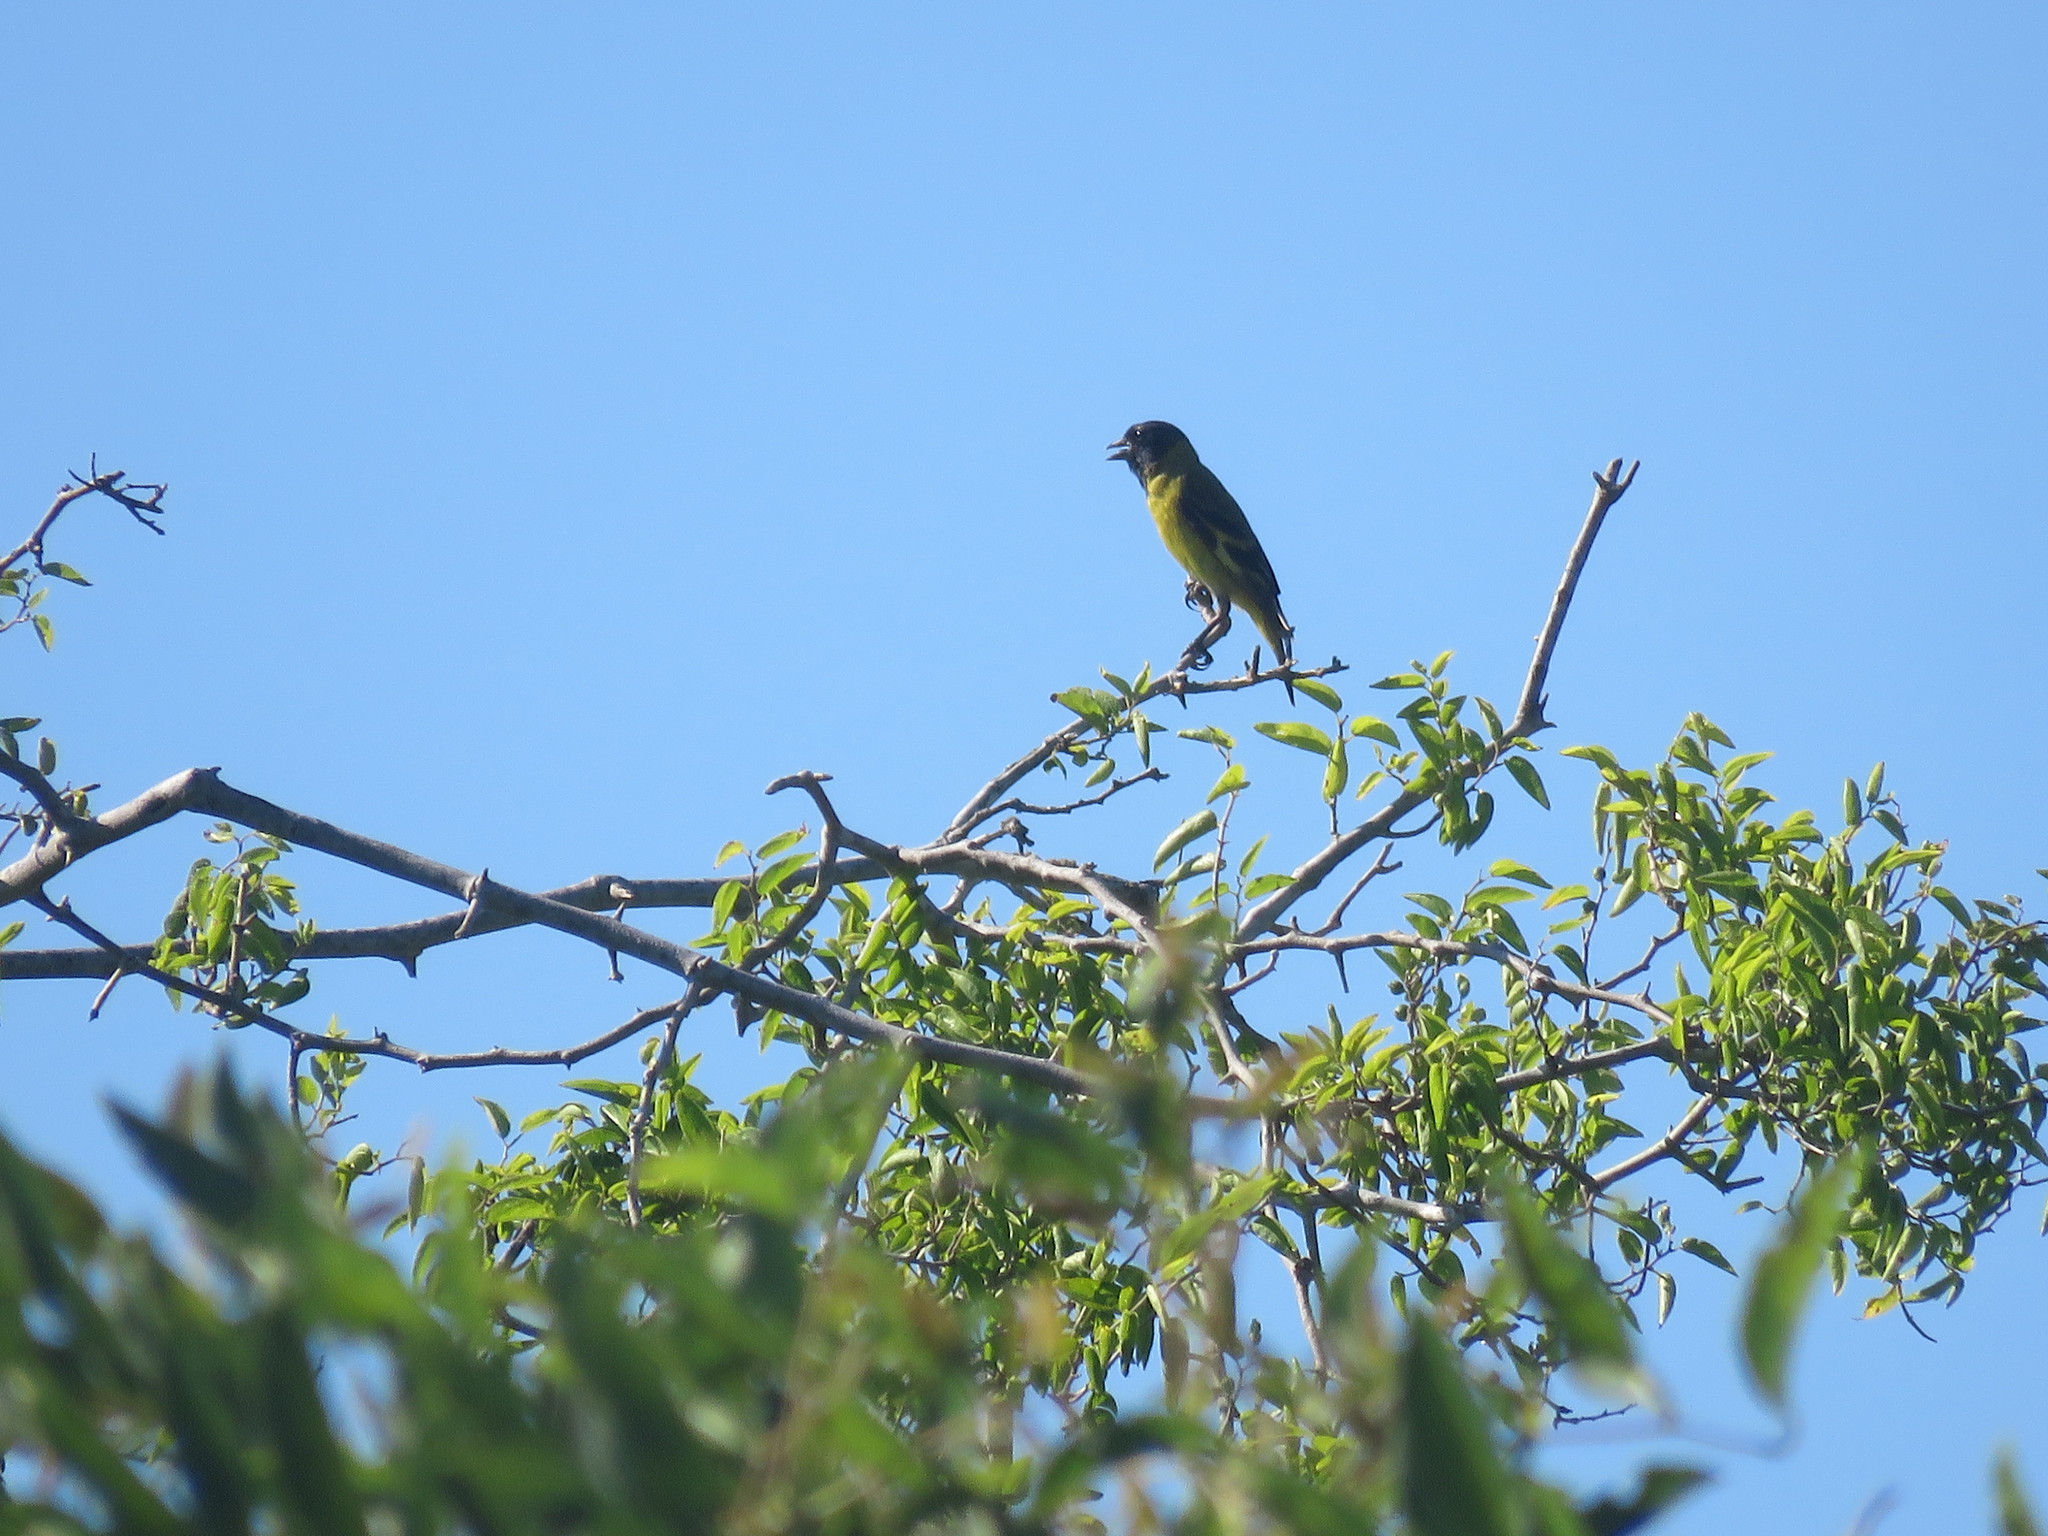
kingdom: Animalia
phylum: Chordata
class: Aves
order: Passeriformes
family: Fringillidae
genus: Spinus
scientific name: Spinus magellanicus
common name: Hooded siskin
